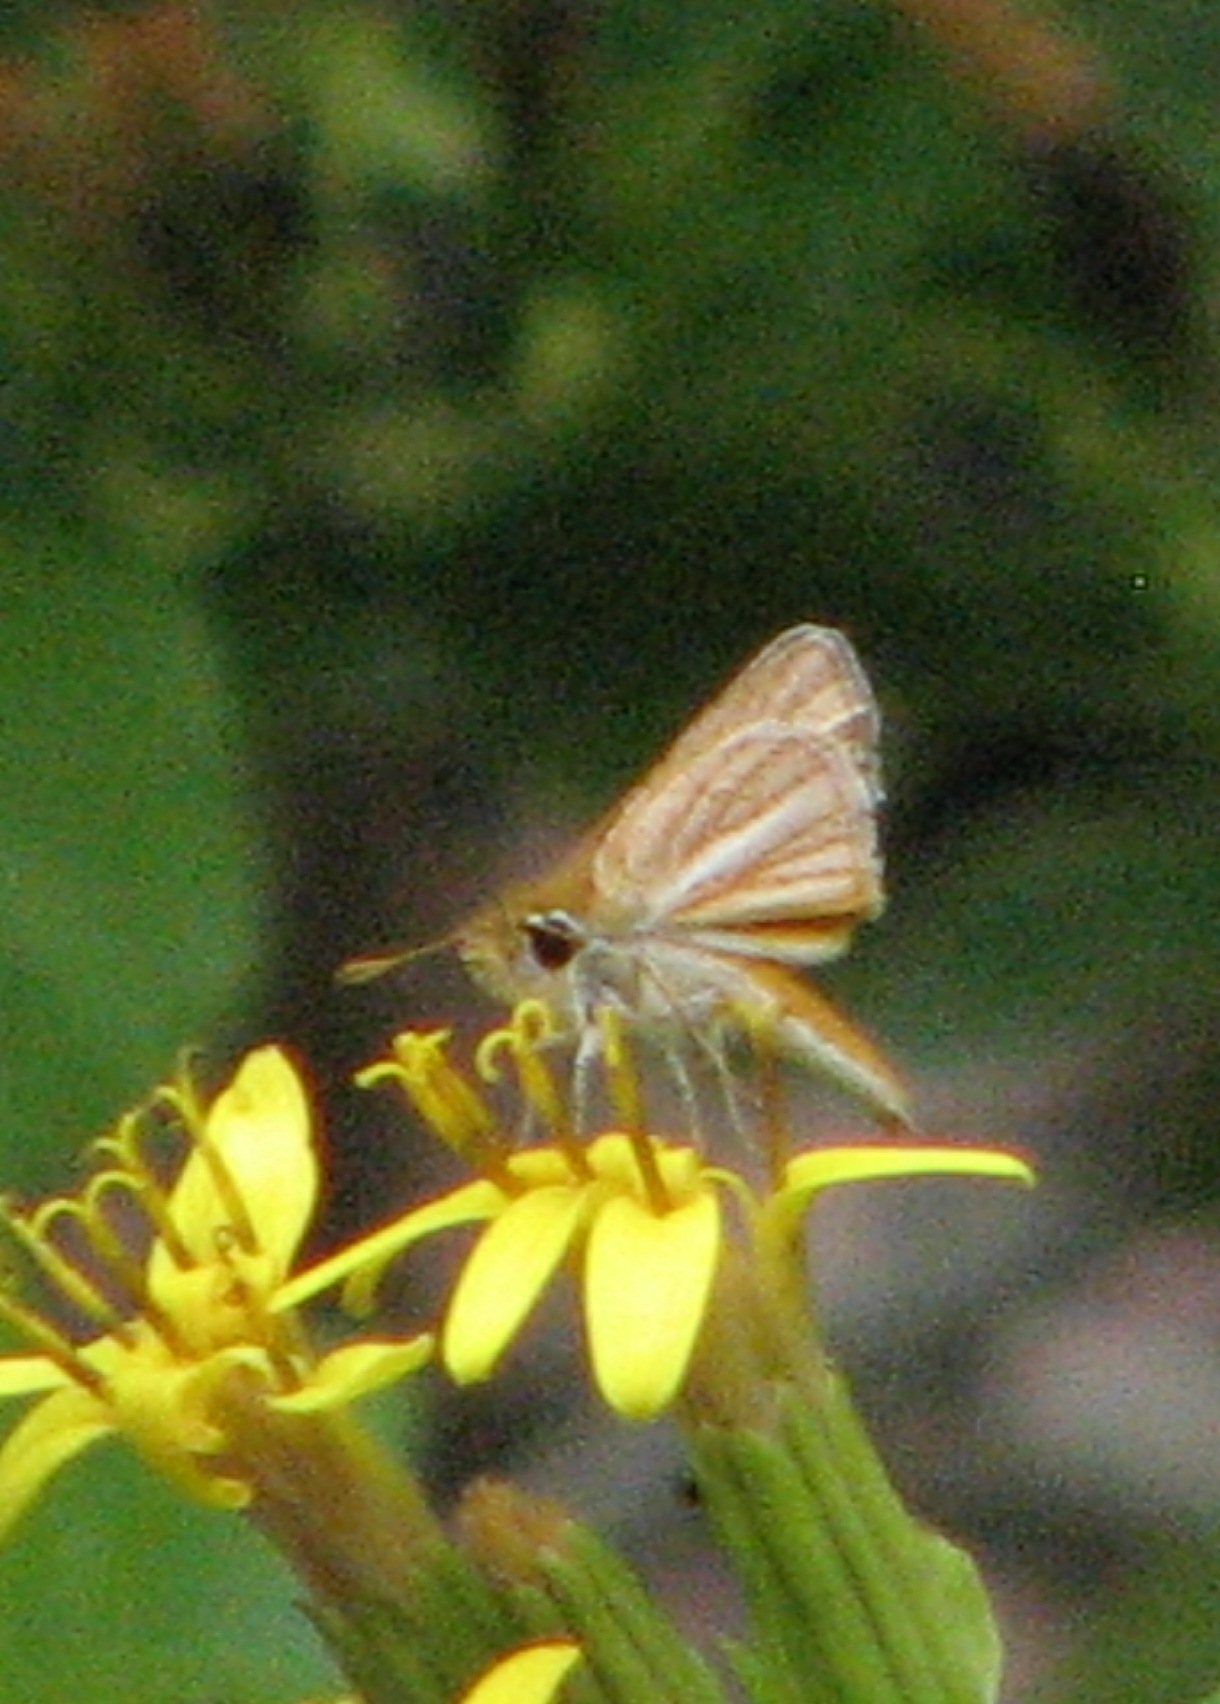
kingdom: Animalia
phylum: Arthropoda
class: Insecta
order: Lepidoptera
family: Hesperiidae
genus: Copaeodes
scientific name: Copaeodes minima
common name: Southern skipperling
